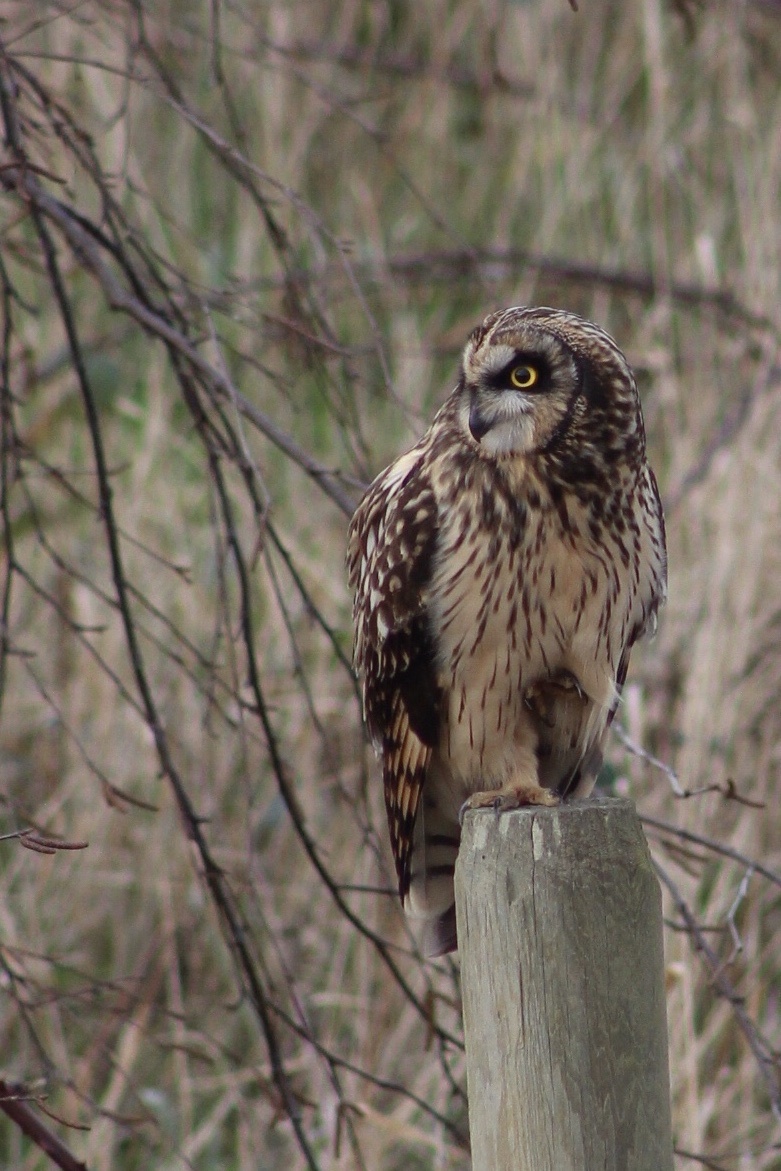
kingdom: Animalia
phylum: Chordata
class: Aves
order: Strigiformes
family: Strigidae
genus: Asio
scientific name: Asio flammeus
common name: Short-eared owl
